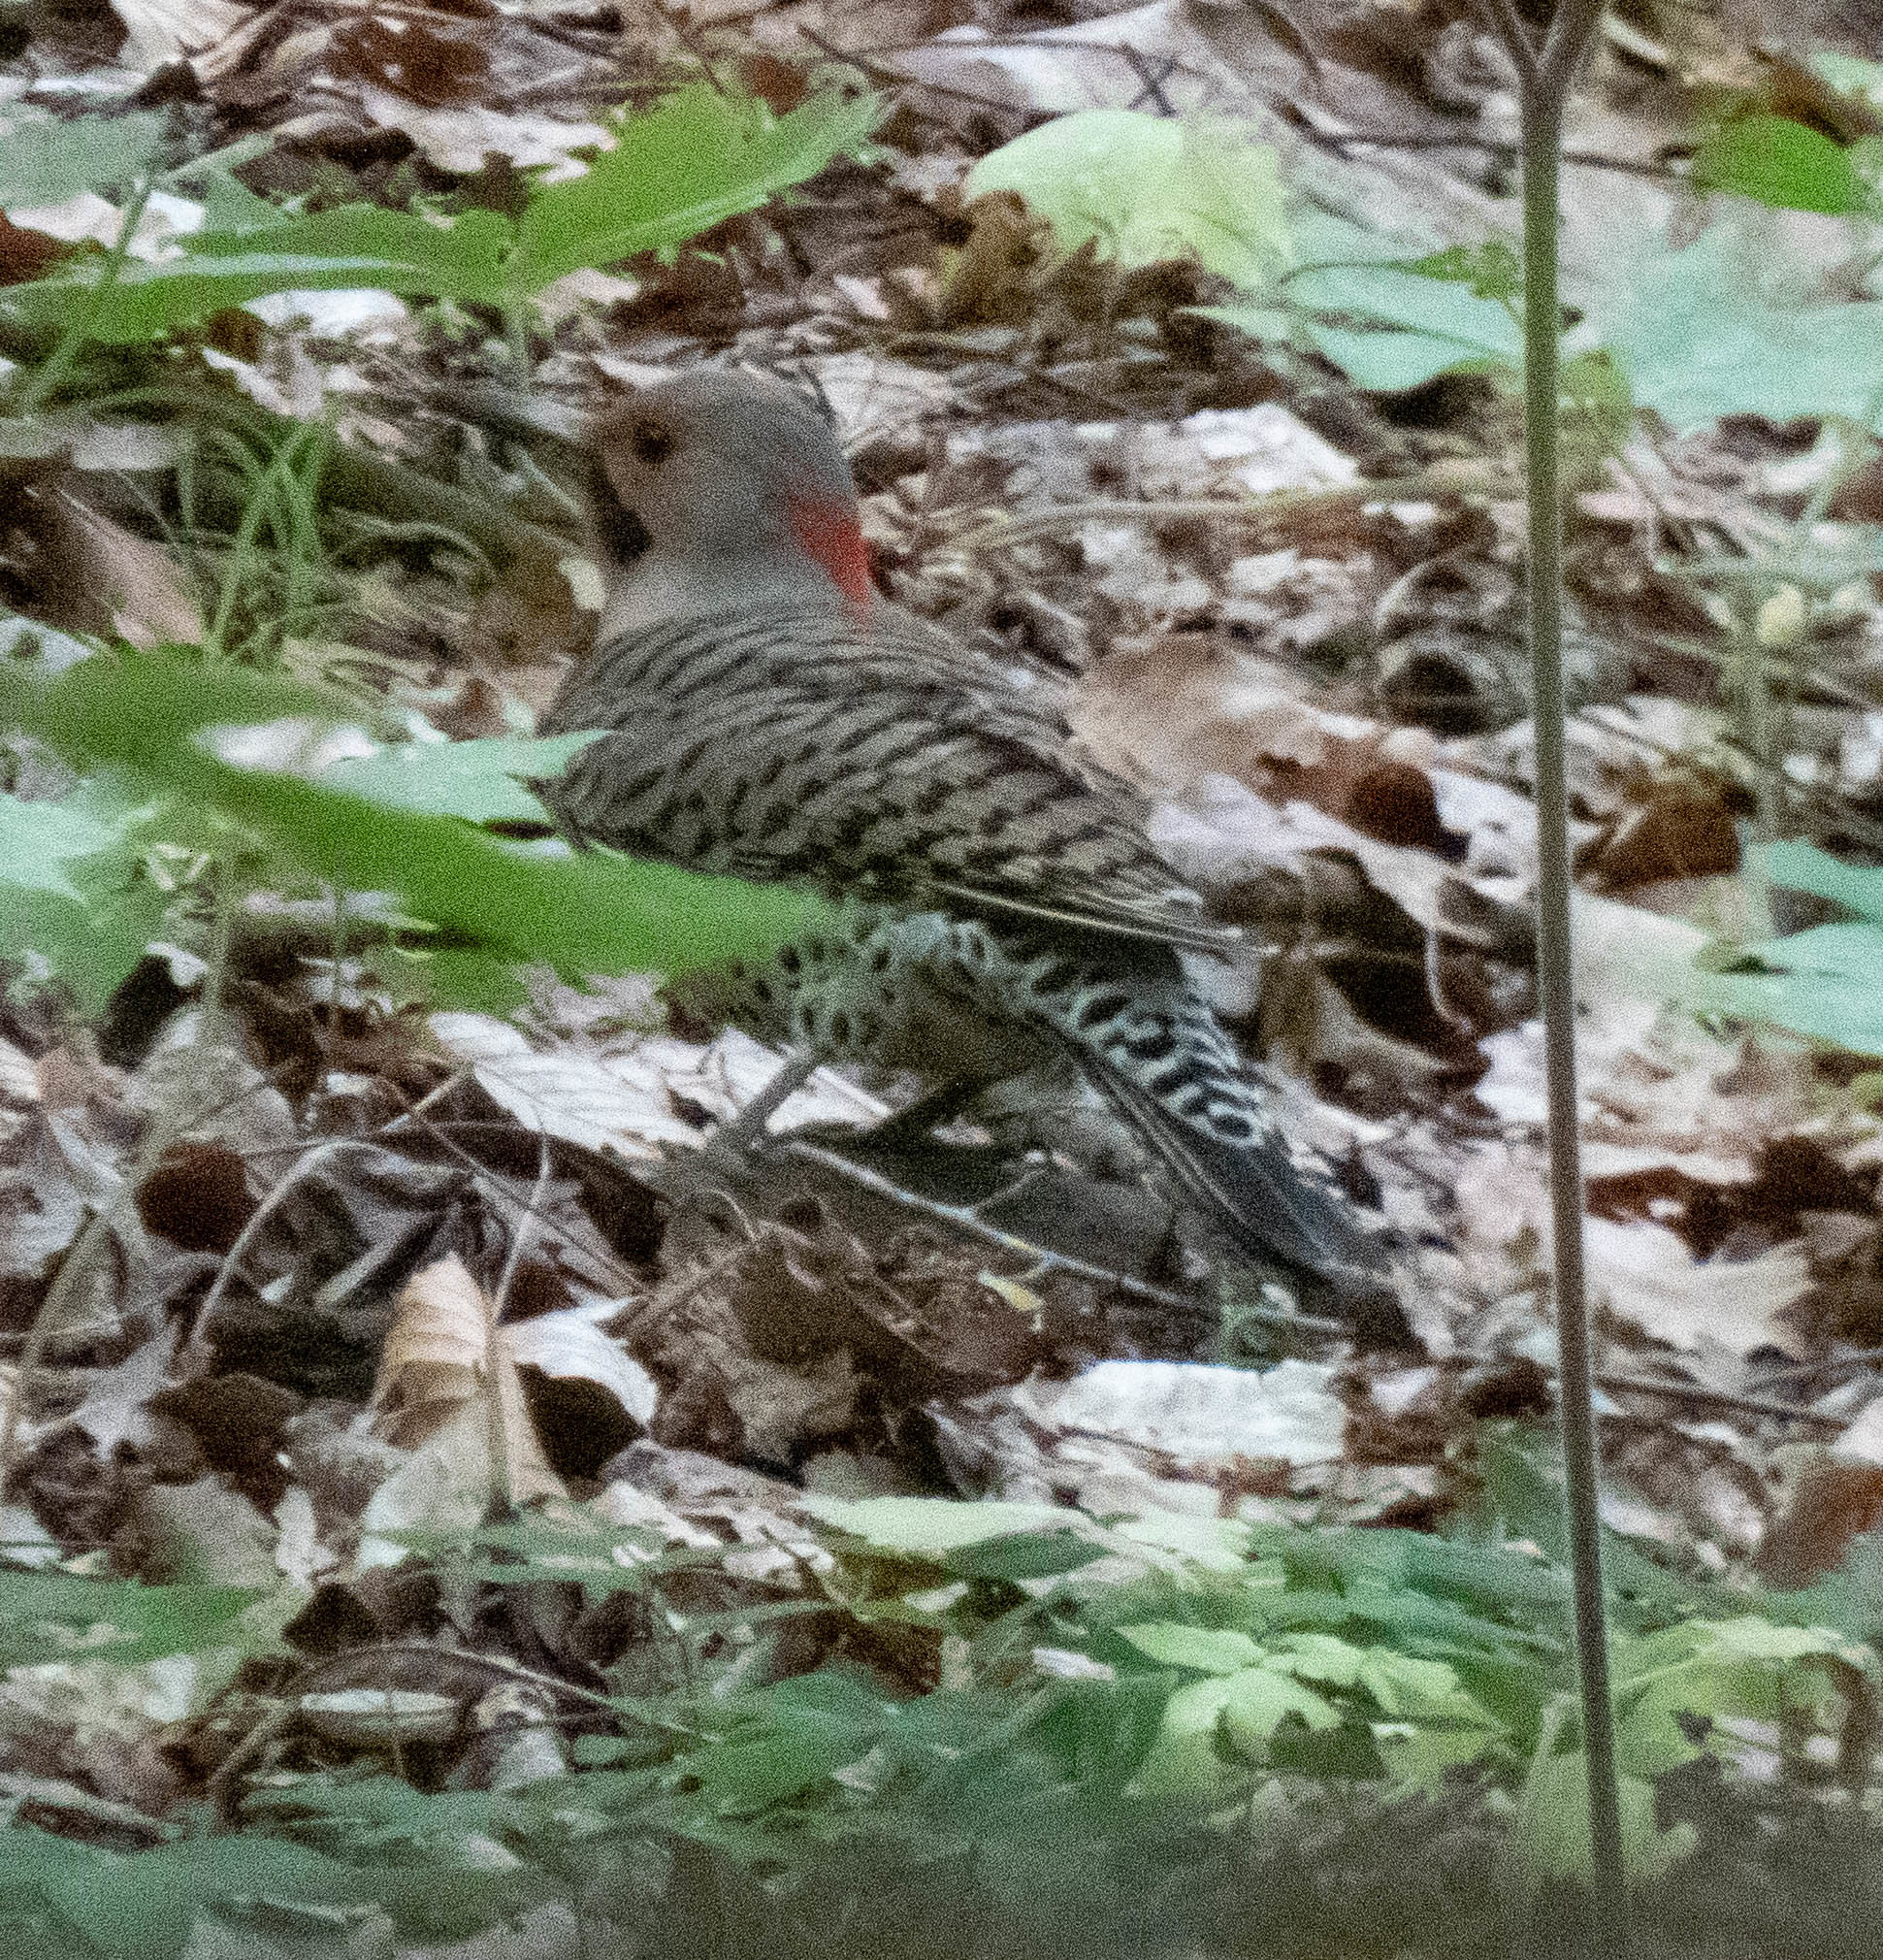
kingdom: Animalia
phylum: Chordata
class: Aves
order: Piciformes
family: Picidae
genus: Colaptes
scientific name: Colaptes auratus
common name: Northern flicker
